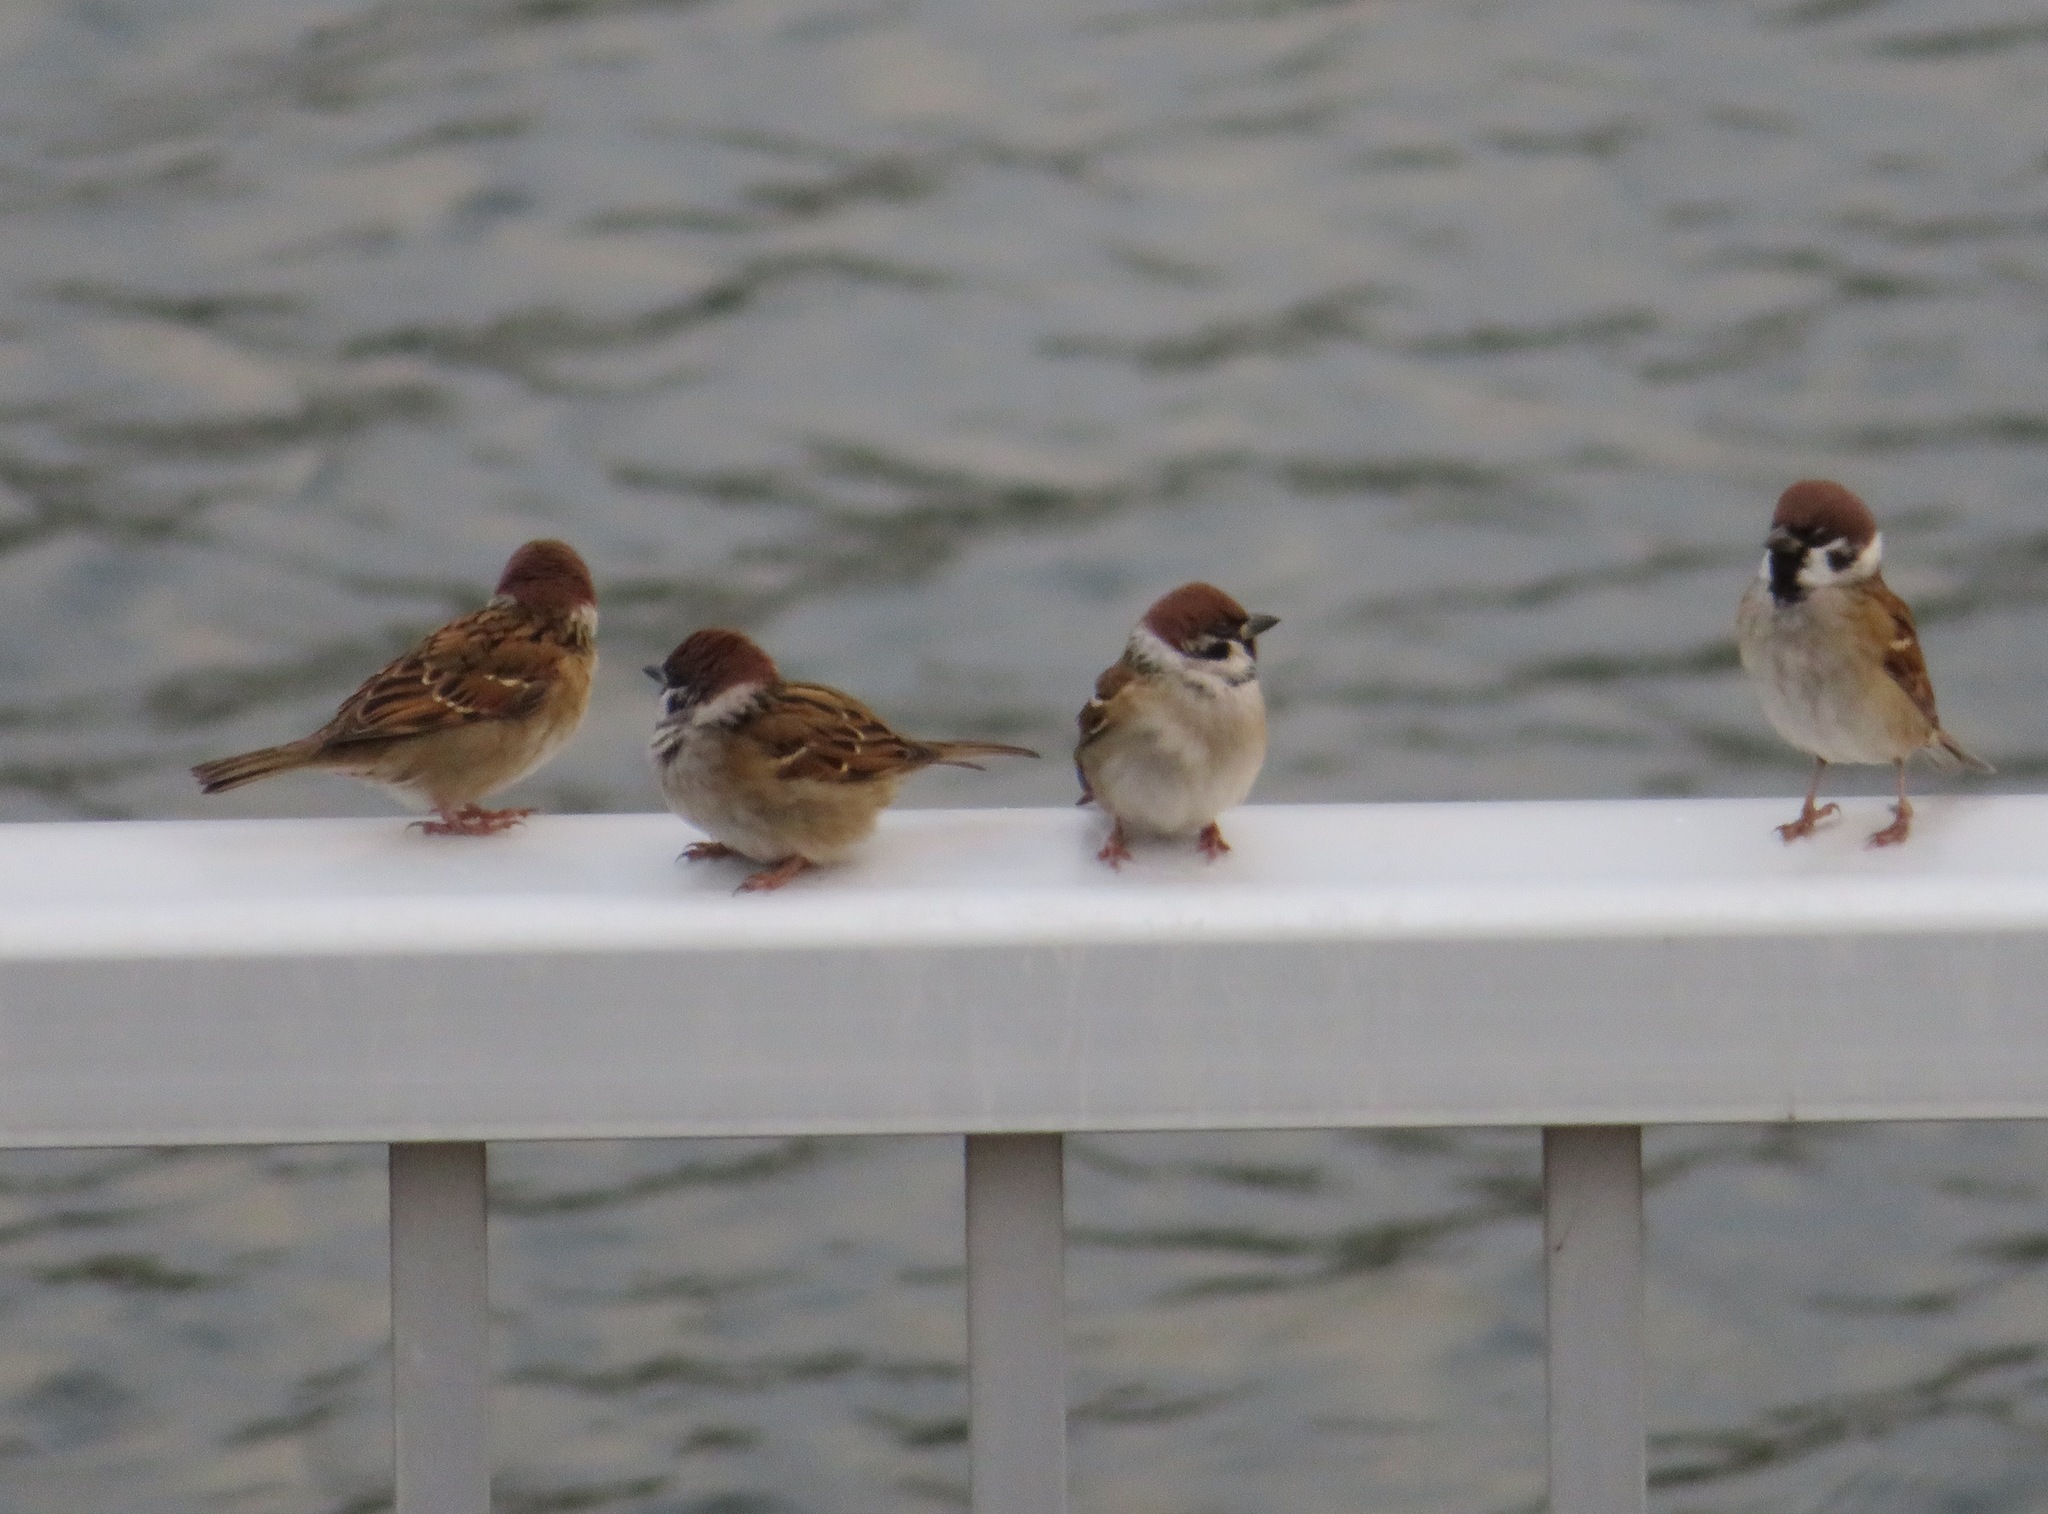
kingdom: Animalia
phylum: Chordata
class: Aves
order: Passeriformes
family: Passeridae
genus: Passer
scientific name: Passer montanus
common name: Eurasian tree sparrow
